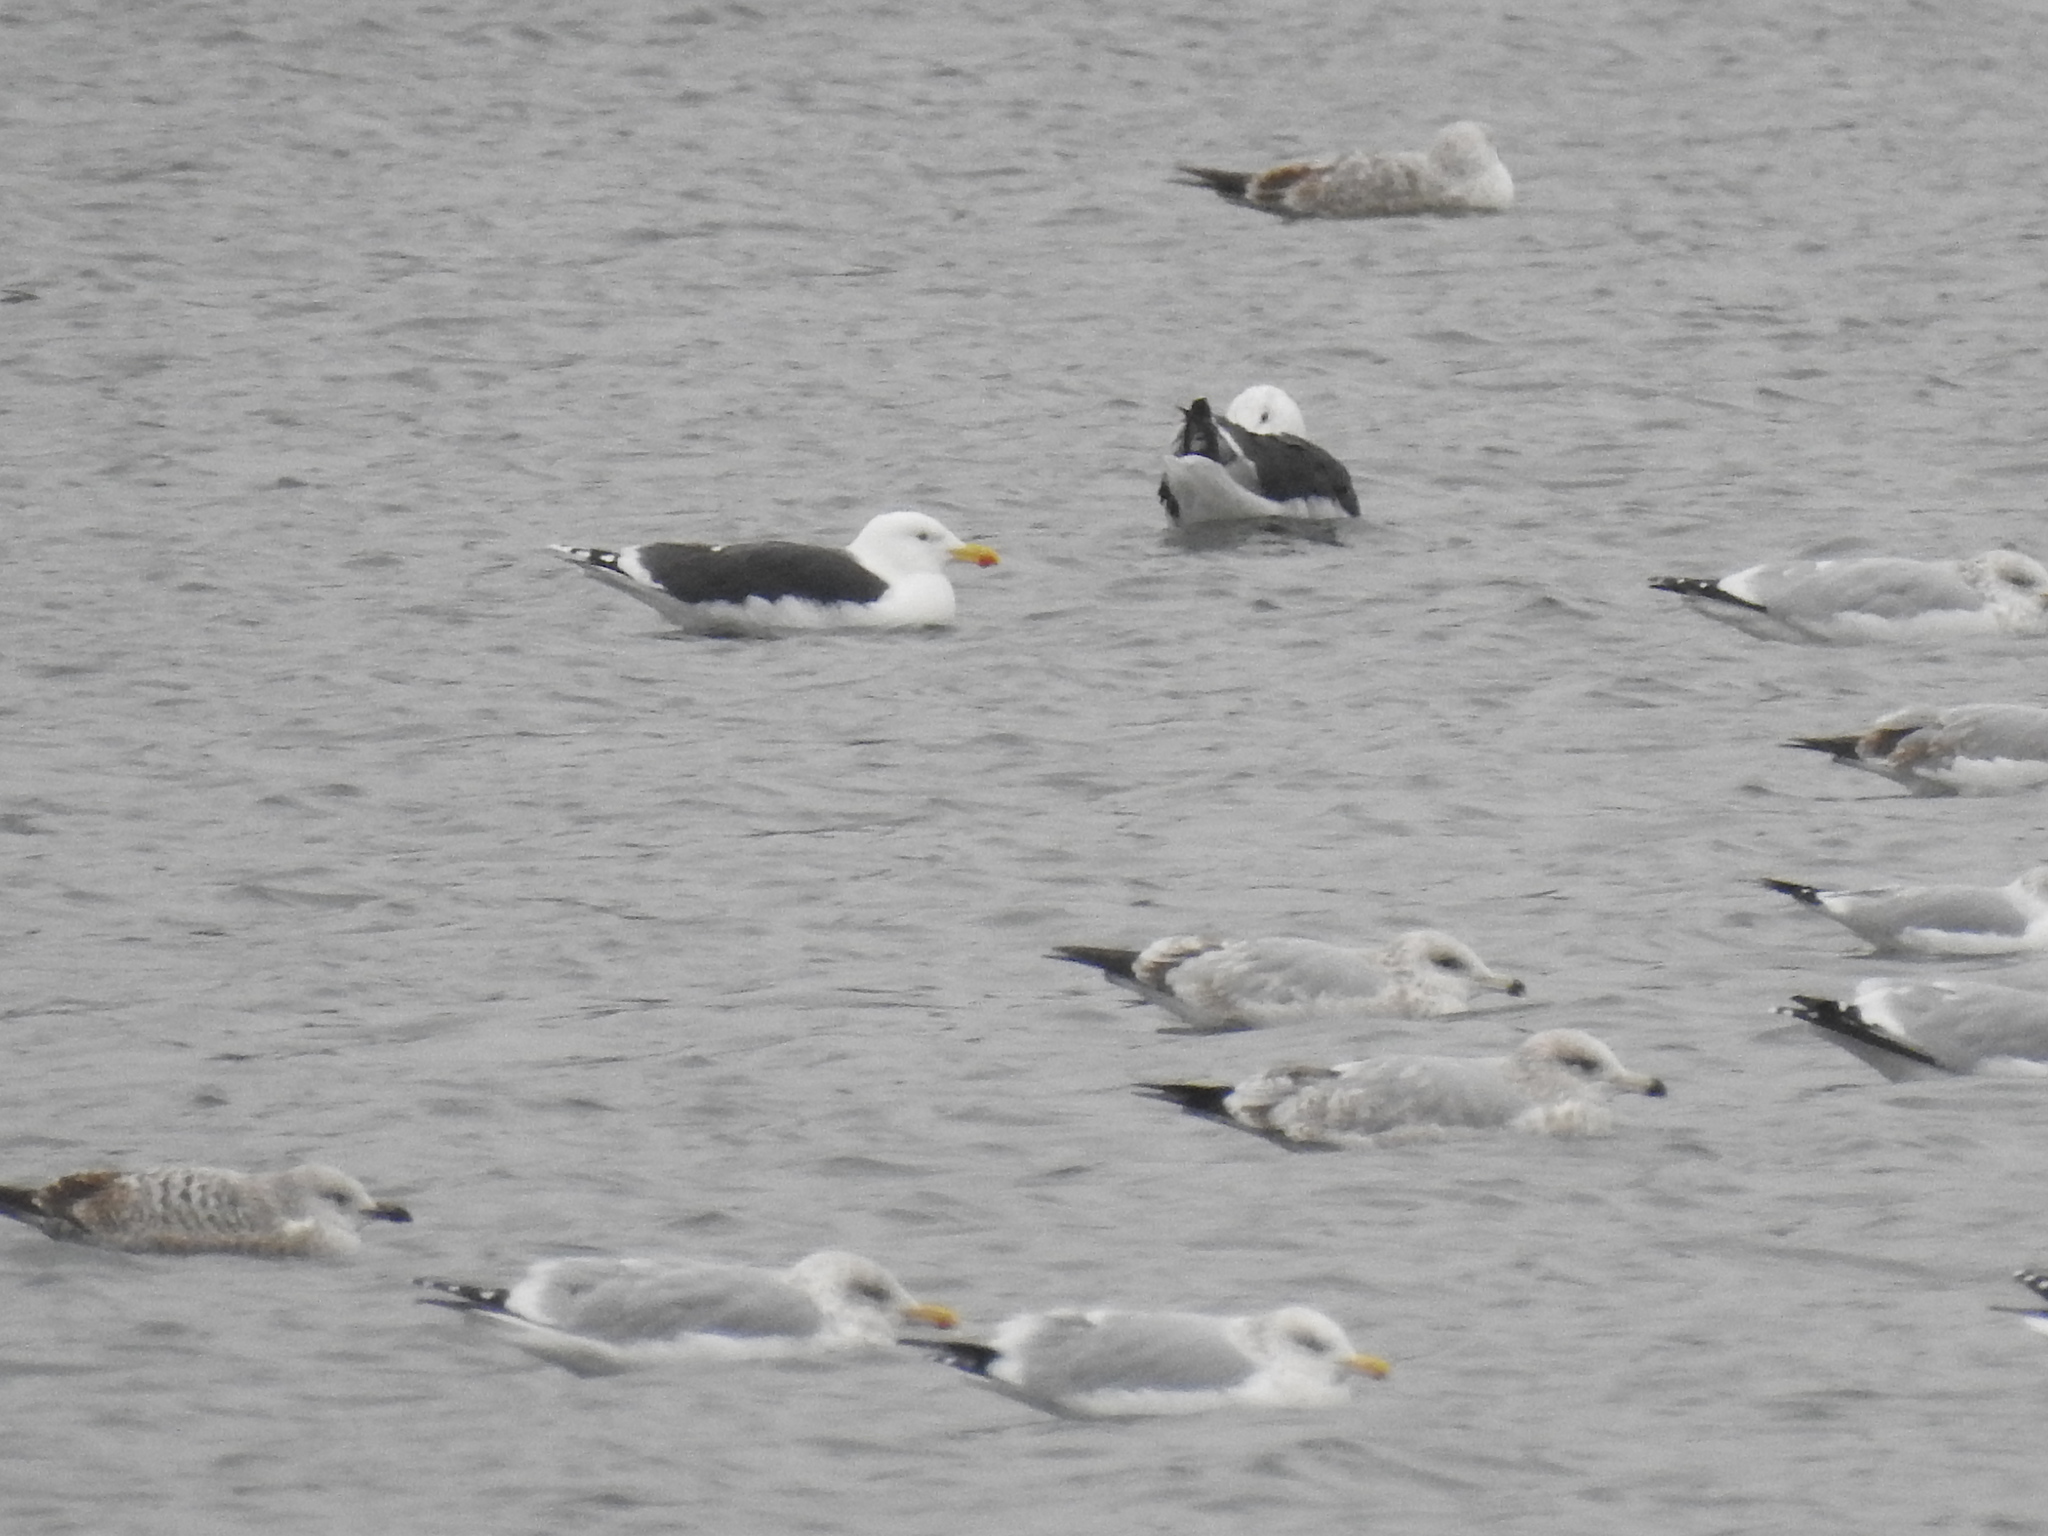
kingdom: Animalia
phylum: Chordata
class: Aves
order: Charadriiformes
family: Laridae
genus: Larus
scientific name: Larus marinus
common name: Great black-backed gull
